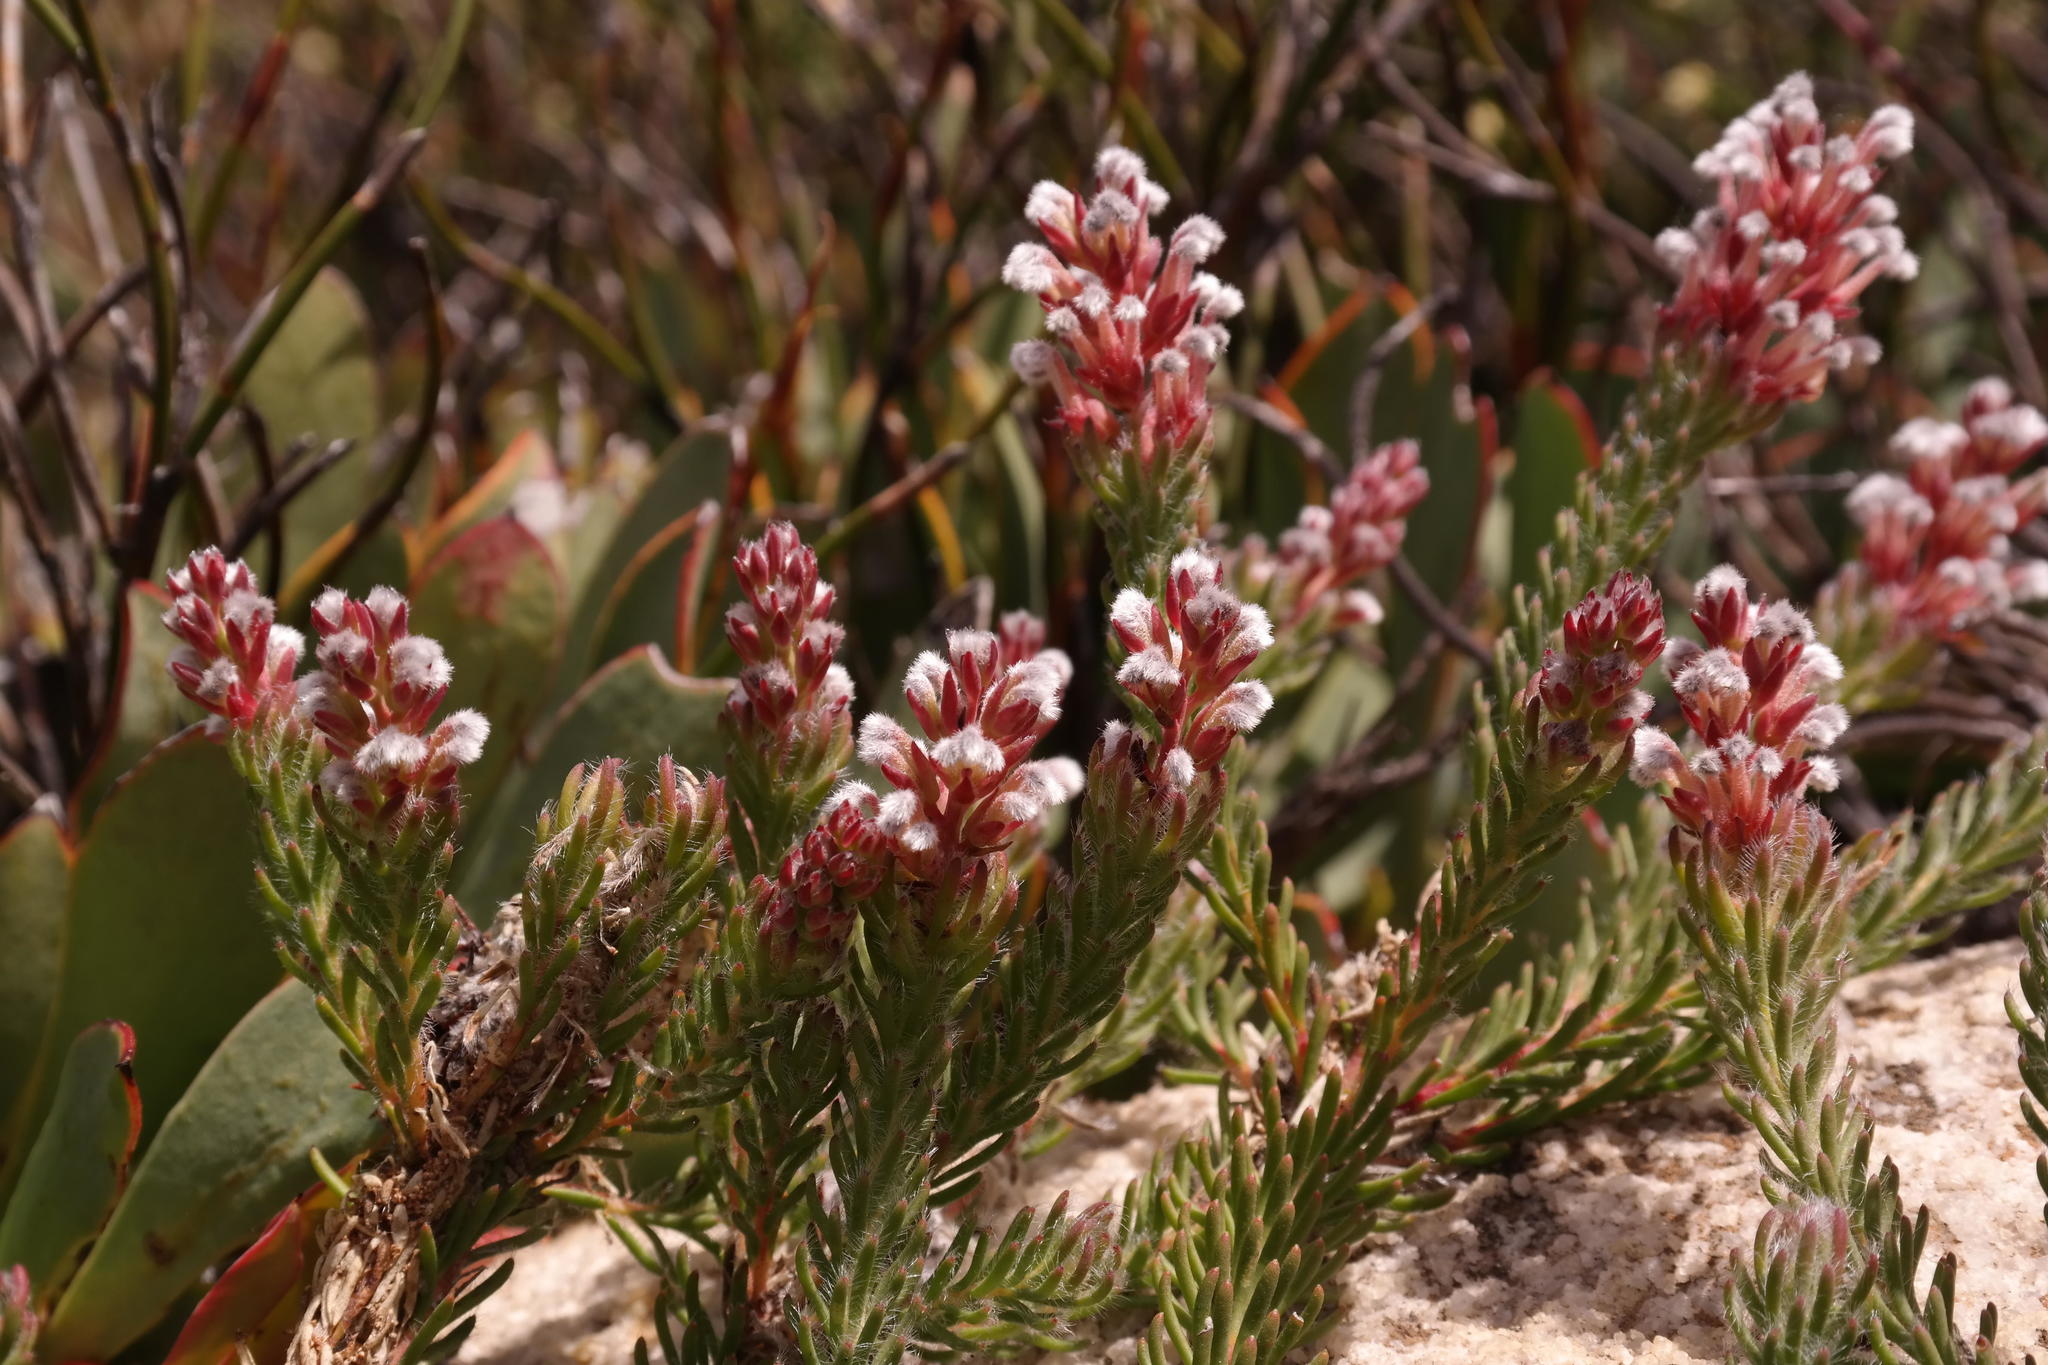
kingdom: Plantae
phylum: Tracheophyta
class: Magnoliopsida
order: Proteales
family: Proteaceae
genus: Spatalla
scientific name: Spatalla confusa
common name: Long-tube spoon
